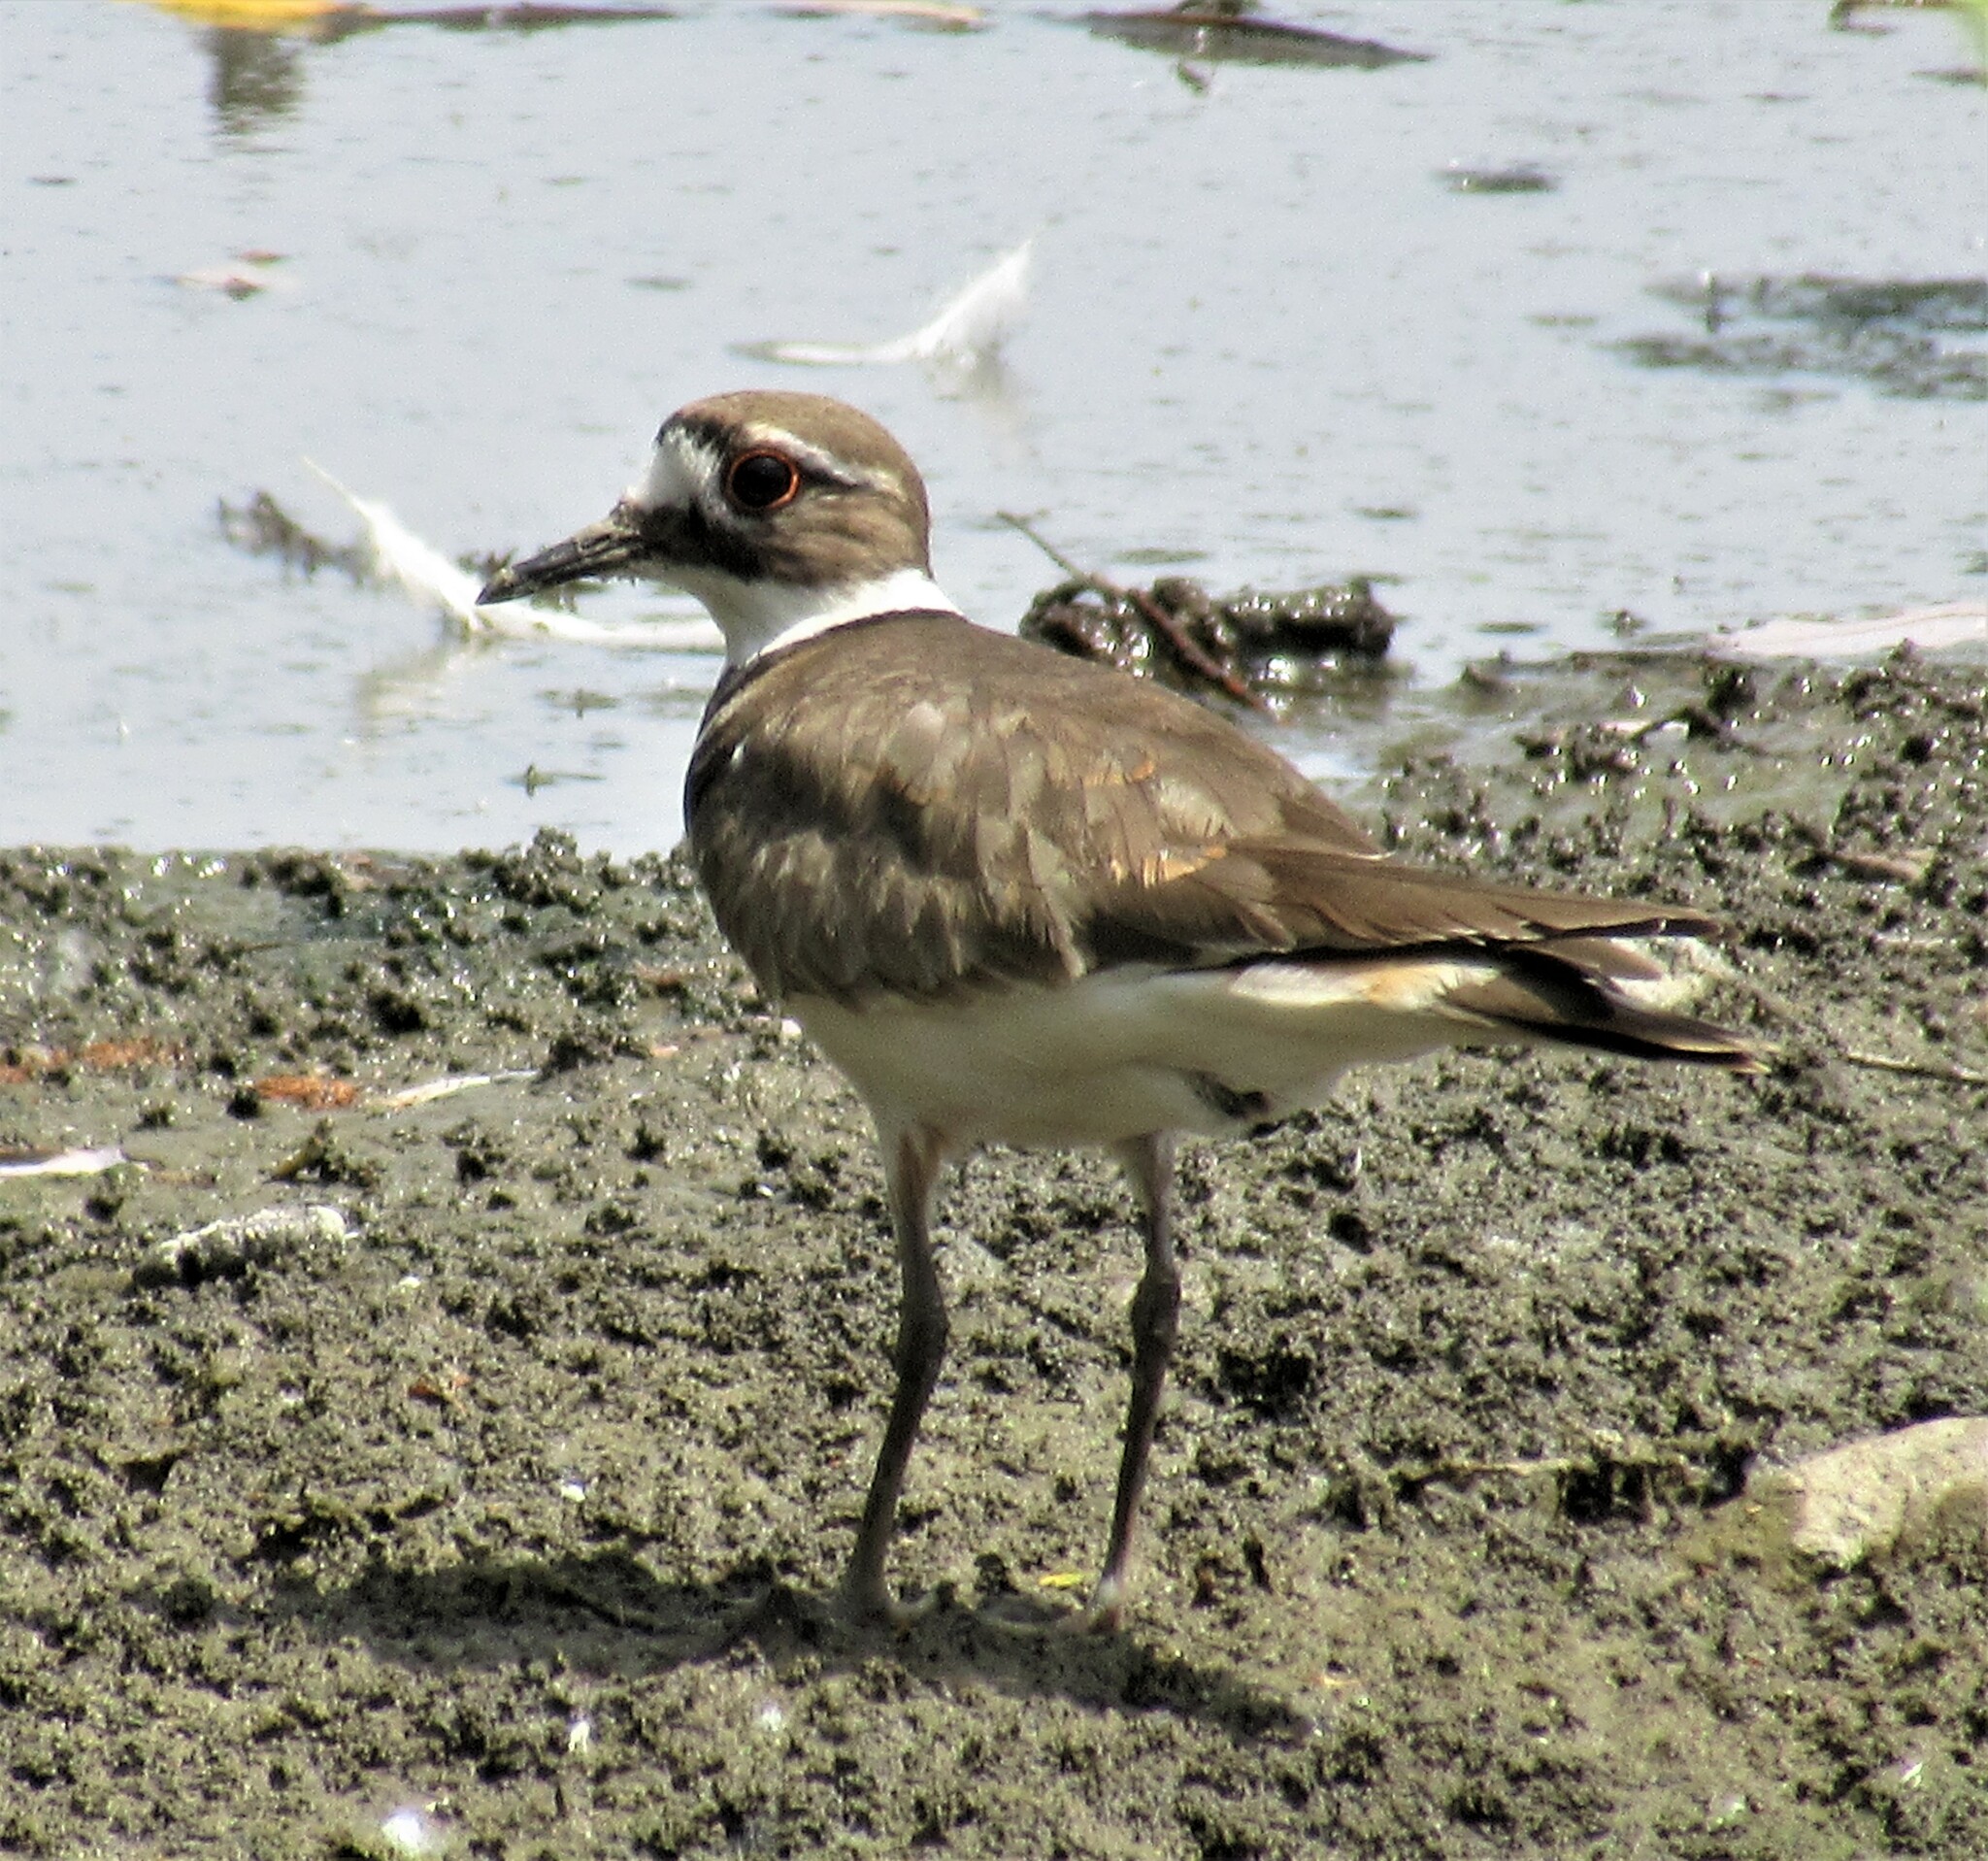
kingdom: Animalia
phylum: Chordata
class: Aves
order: Charadriiformes
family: Charadriidae
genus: Charadrius
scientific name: Charadrius vociferus
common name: Killdeer
